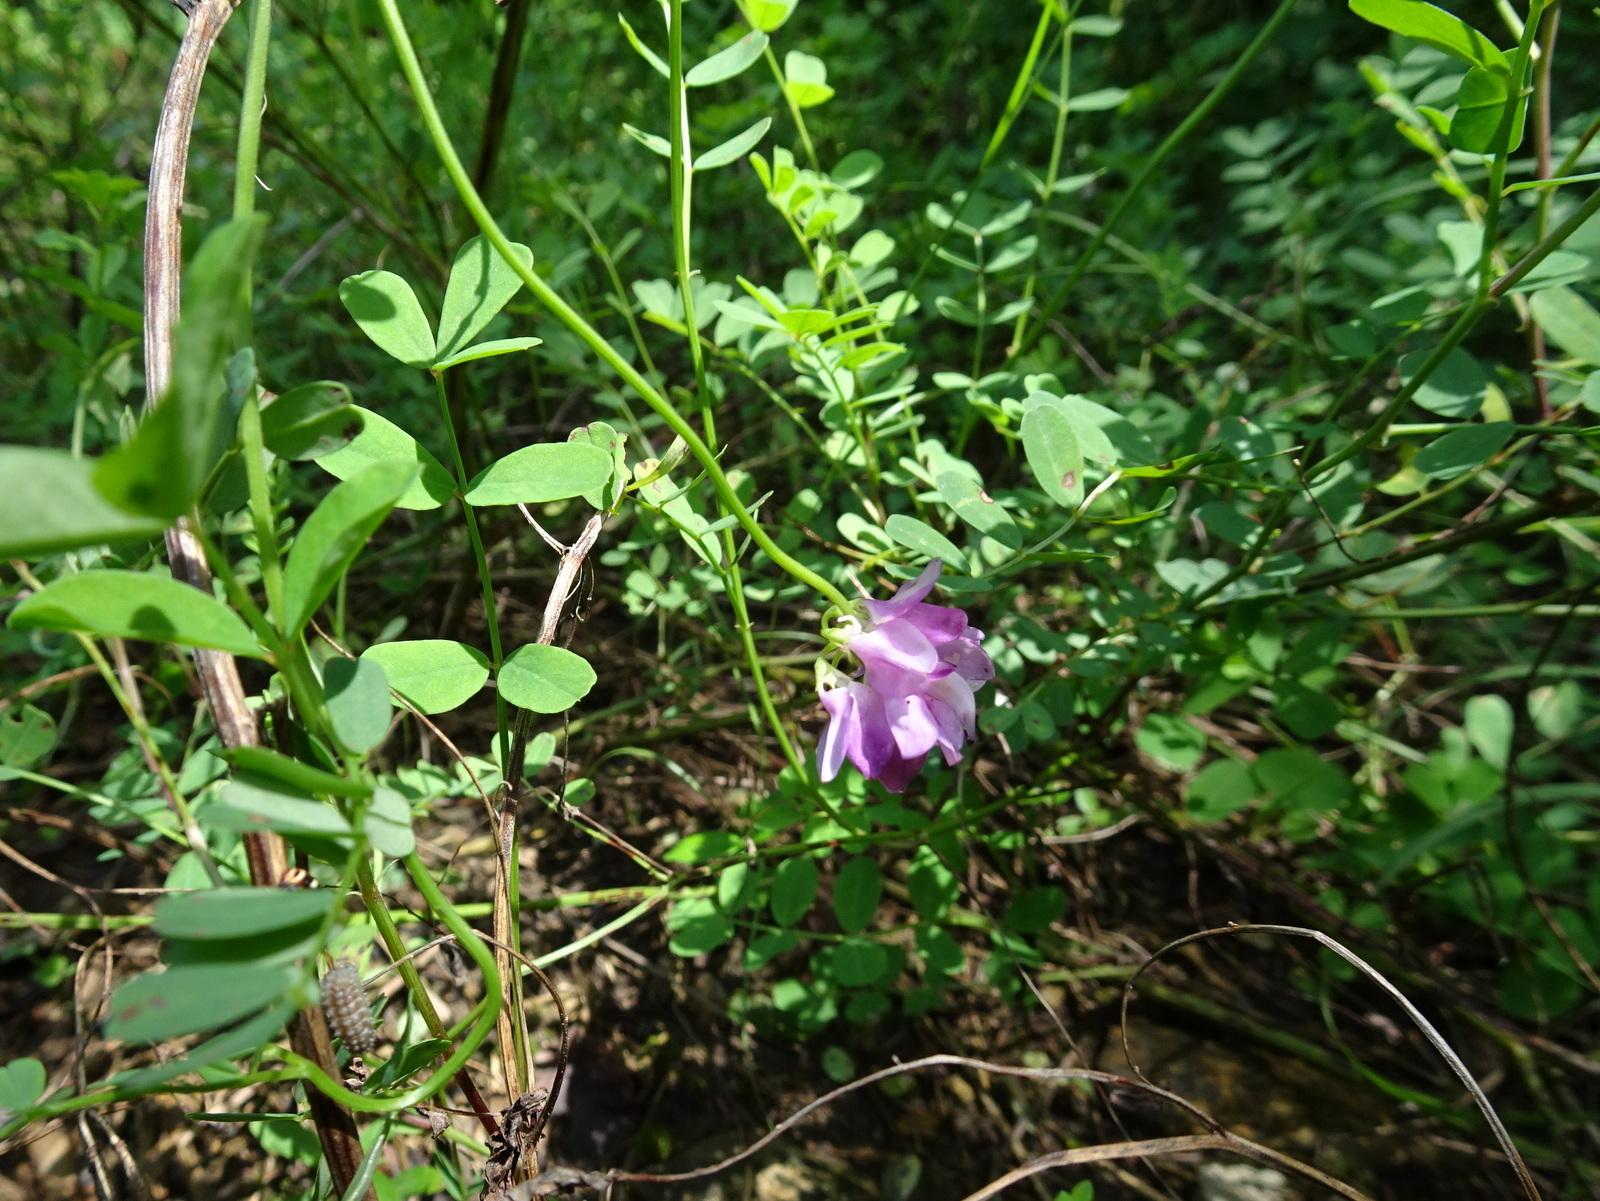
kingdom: Plantae
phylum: Tracheophyta
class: Magnoliopsida
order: Fabales
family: Fabaceae
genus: Coronilla
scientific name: Coronilla varia
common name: Crownvetch
